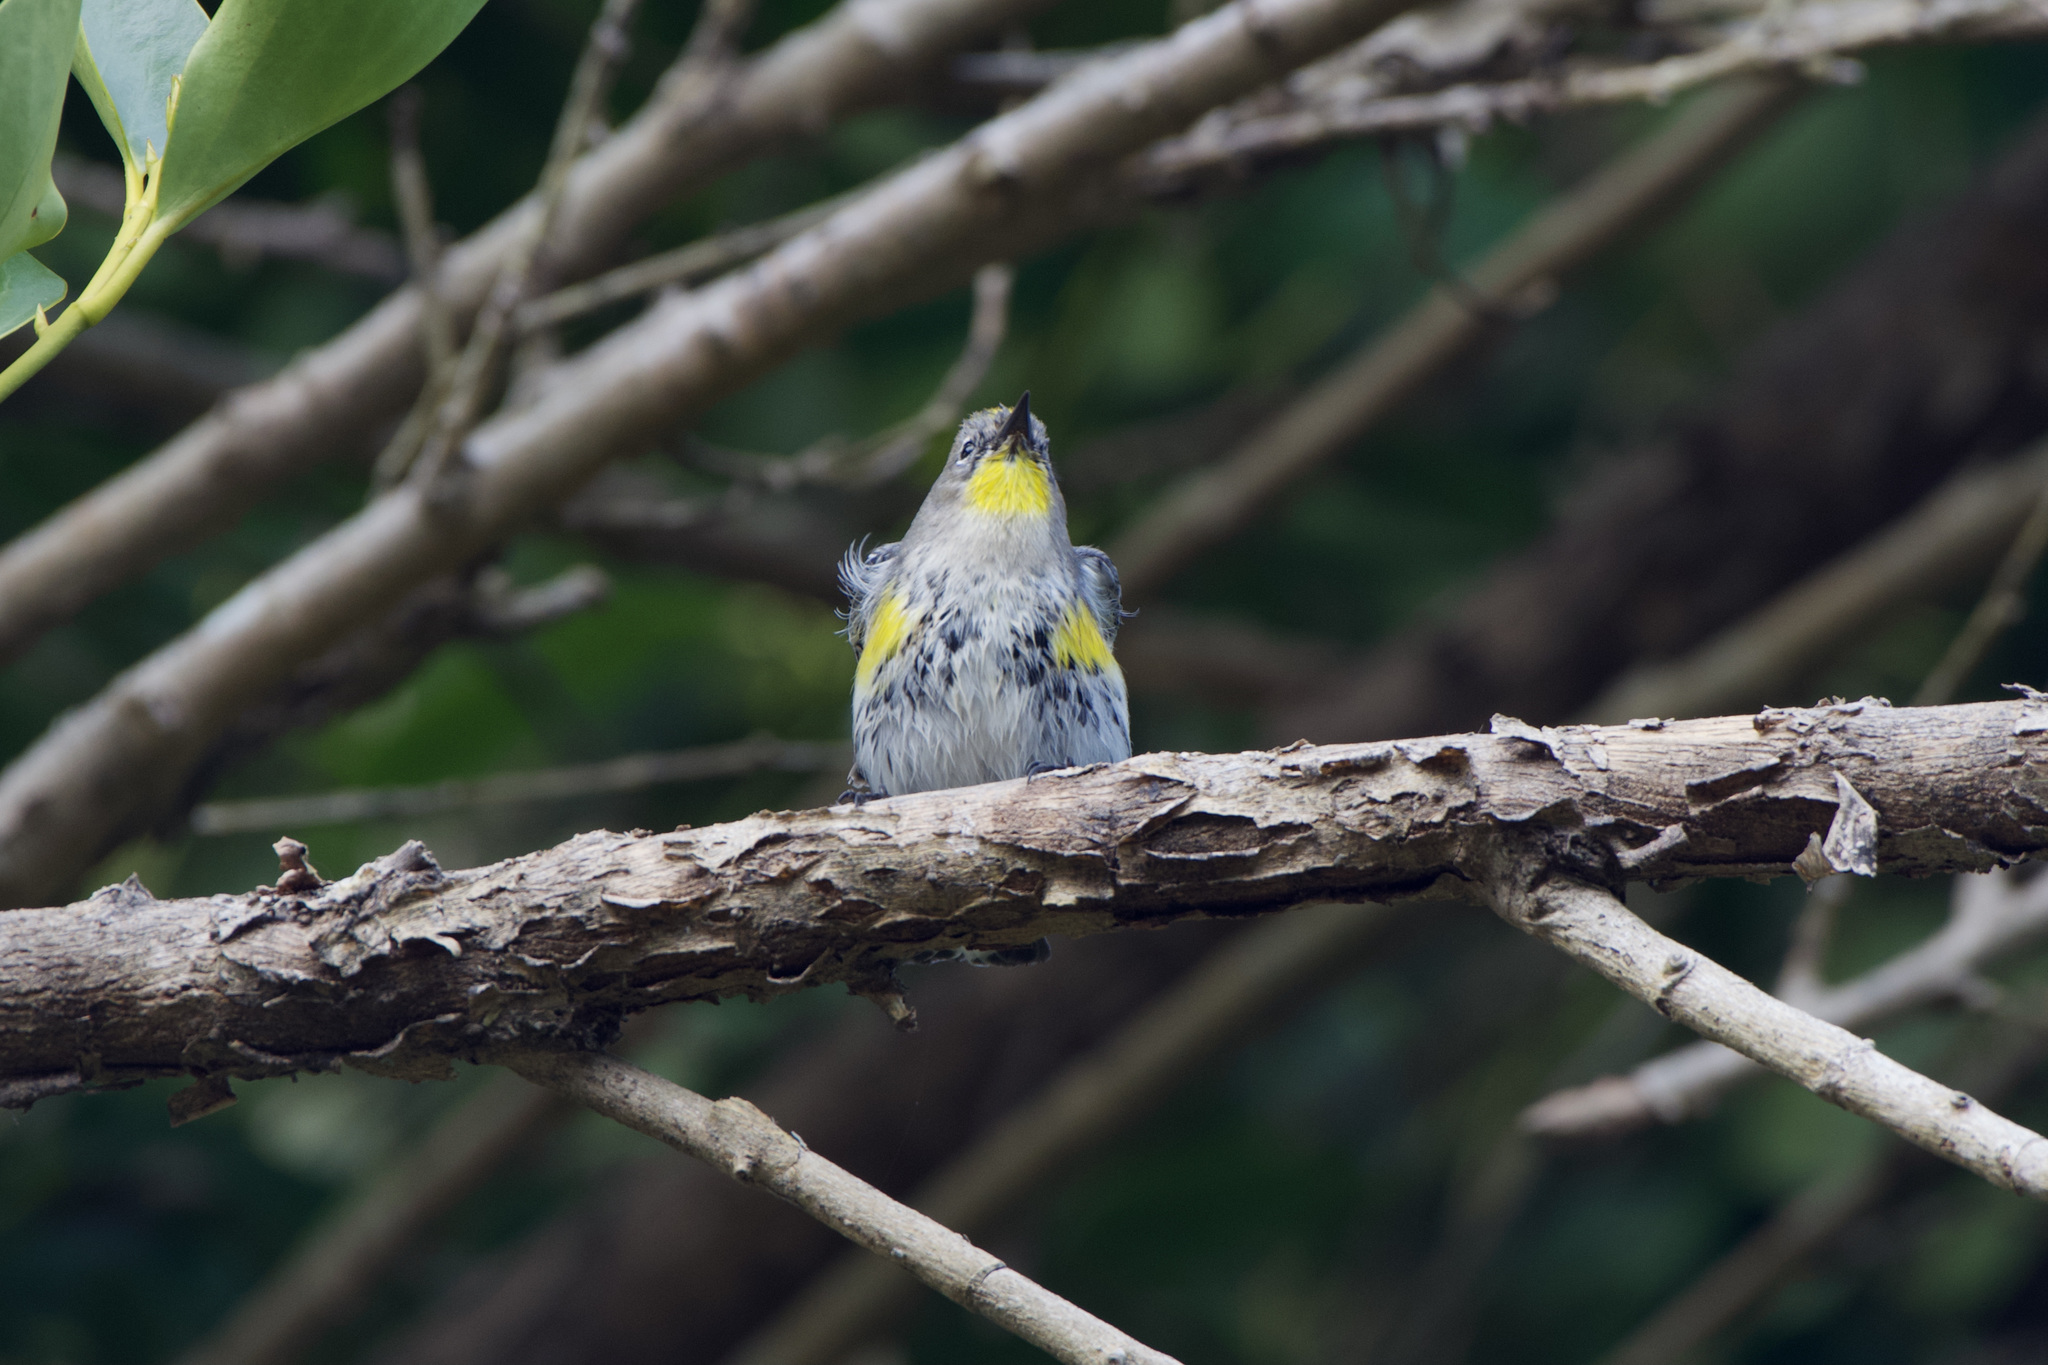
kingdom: Animalia
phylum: Chordata
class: Aves
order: Passeriformes
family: Parulidae
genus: Setophaga
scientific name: Setophaga auduboni
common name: Audubon's warbler
